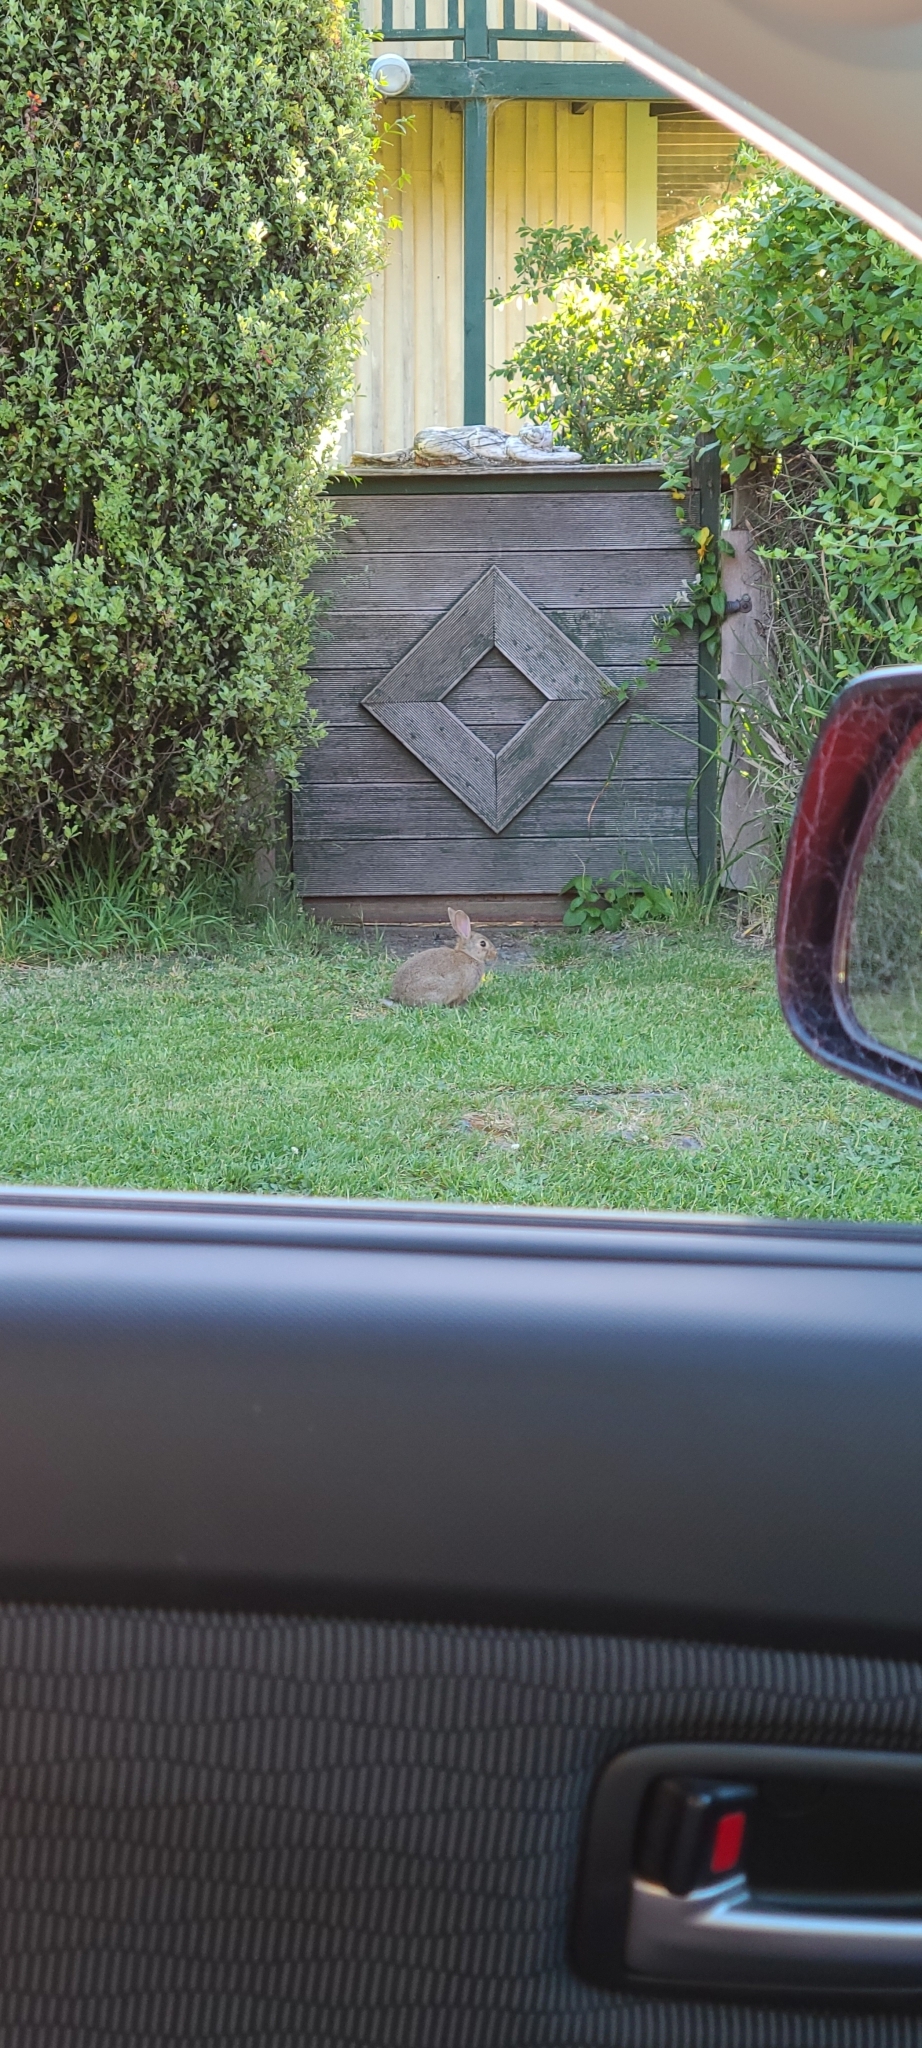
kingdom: Animalia
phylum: Chordata
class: Mammalia
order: Lagomorpha
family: Leporidae
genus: Oryctolagus
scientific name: Oryctolagus cuniculus
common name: European rabbit
